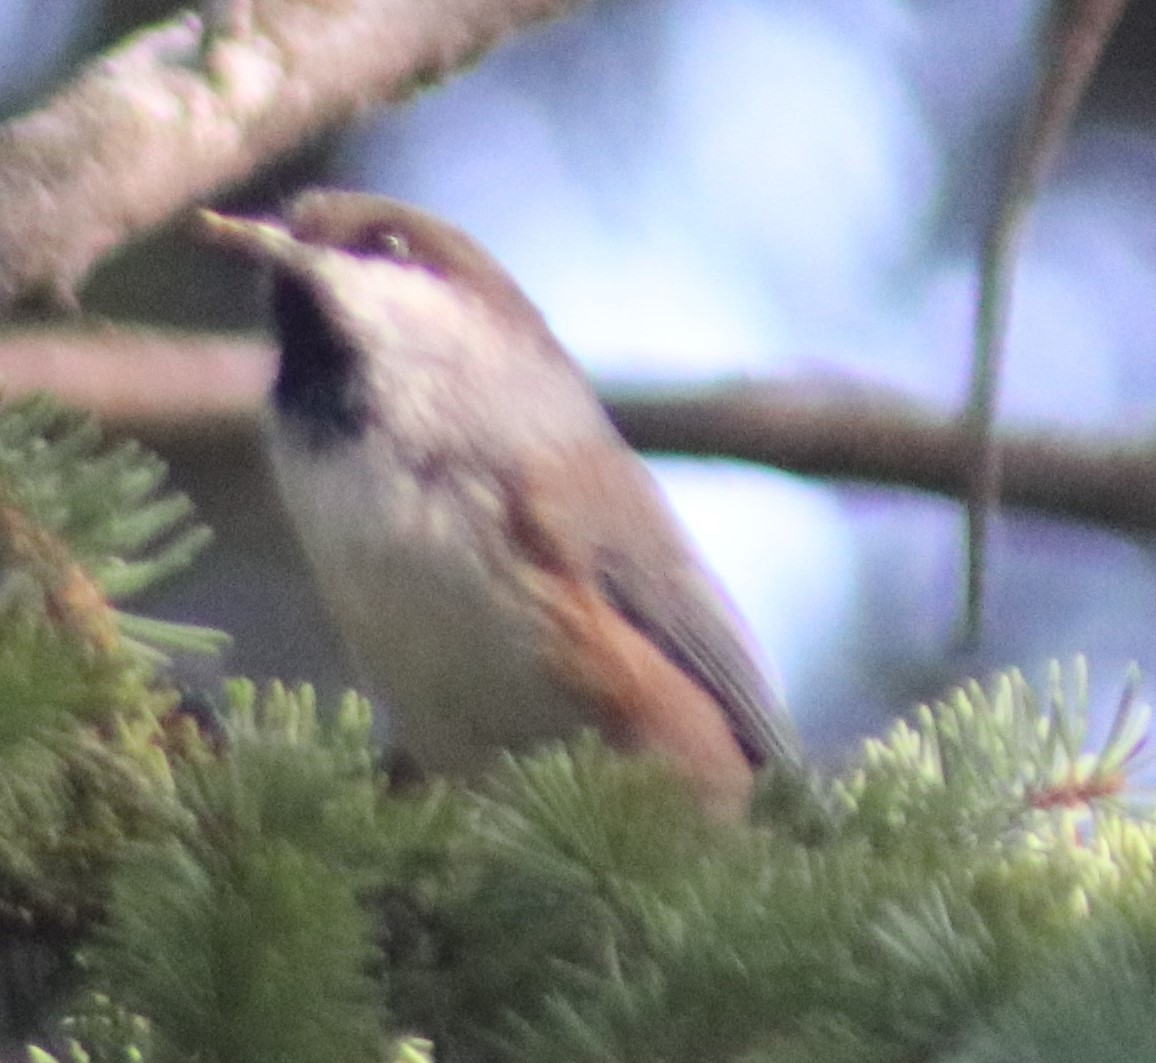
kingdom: Animalia
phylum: Chordata
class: Aves
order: Passeriformes
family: Paridae
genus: Poecile
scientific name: Poecile hudsonicus
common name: Boreal chickadee
